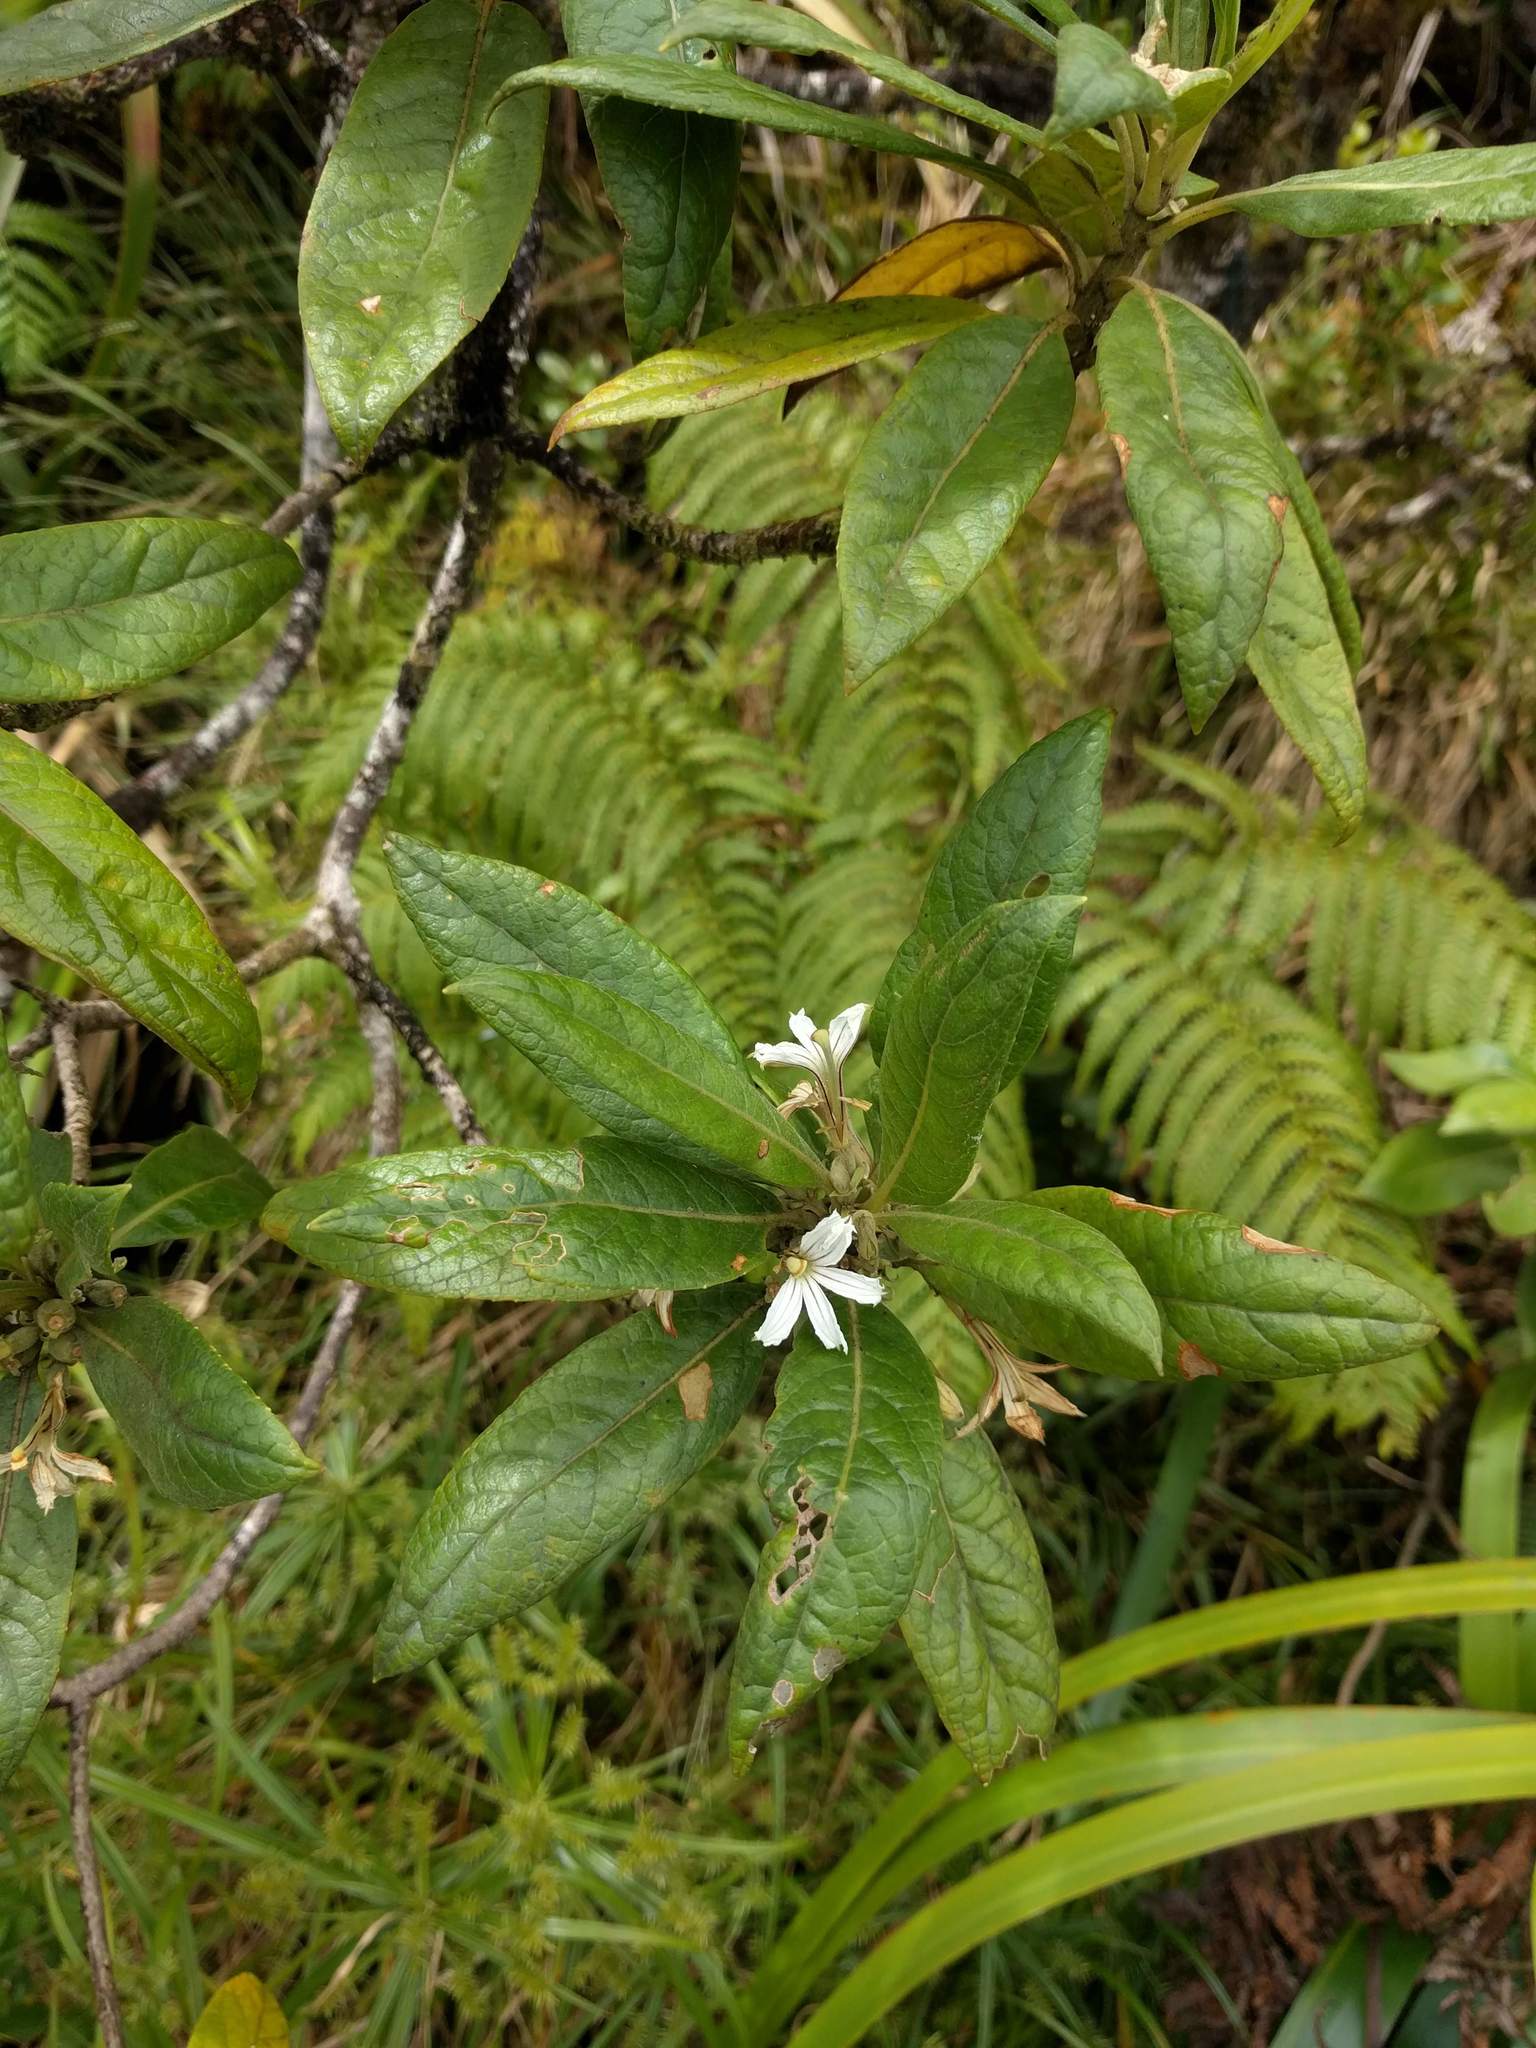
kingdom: Plantae
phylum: Tracheophyta
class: Magnoliopsida
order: Asterales
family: Goodeniaceae
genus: Scaevola
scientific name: Scaevola gaudichaudiana
